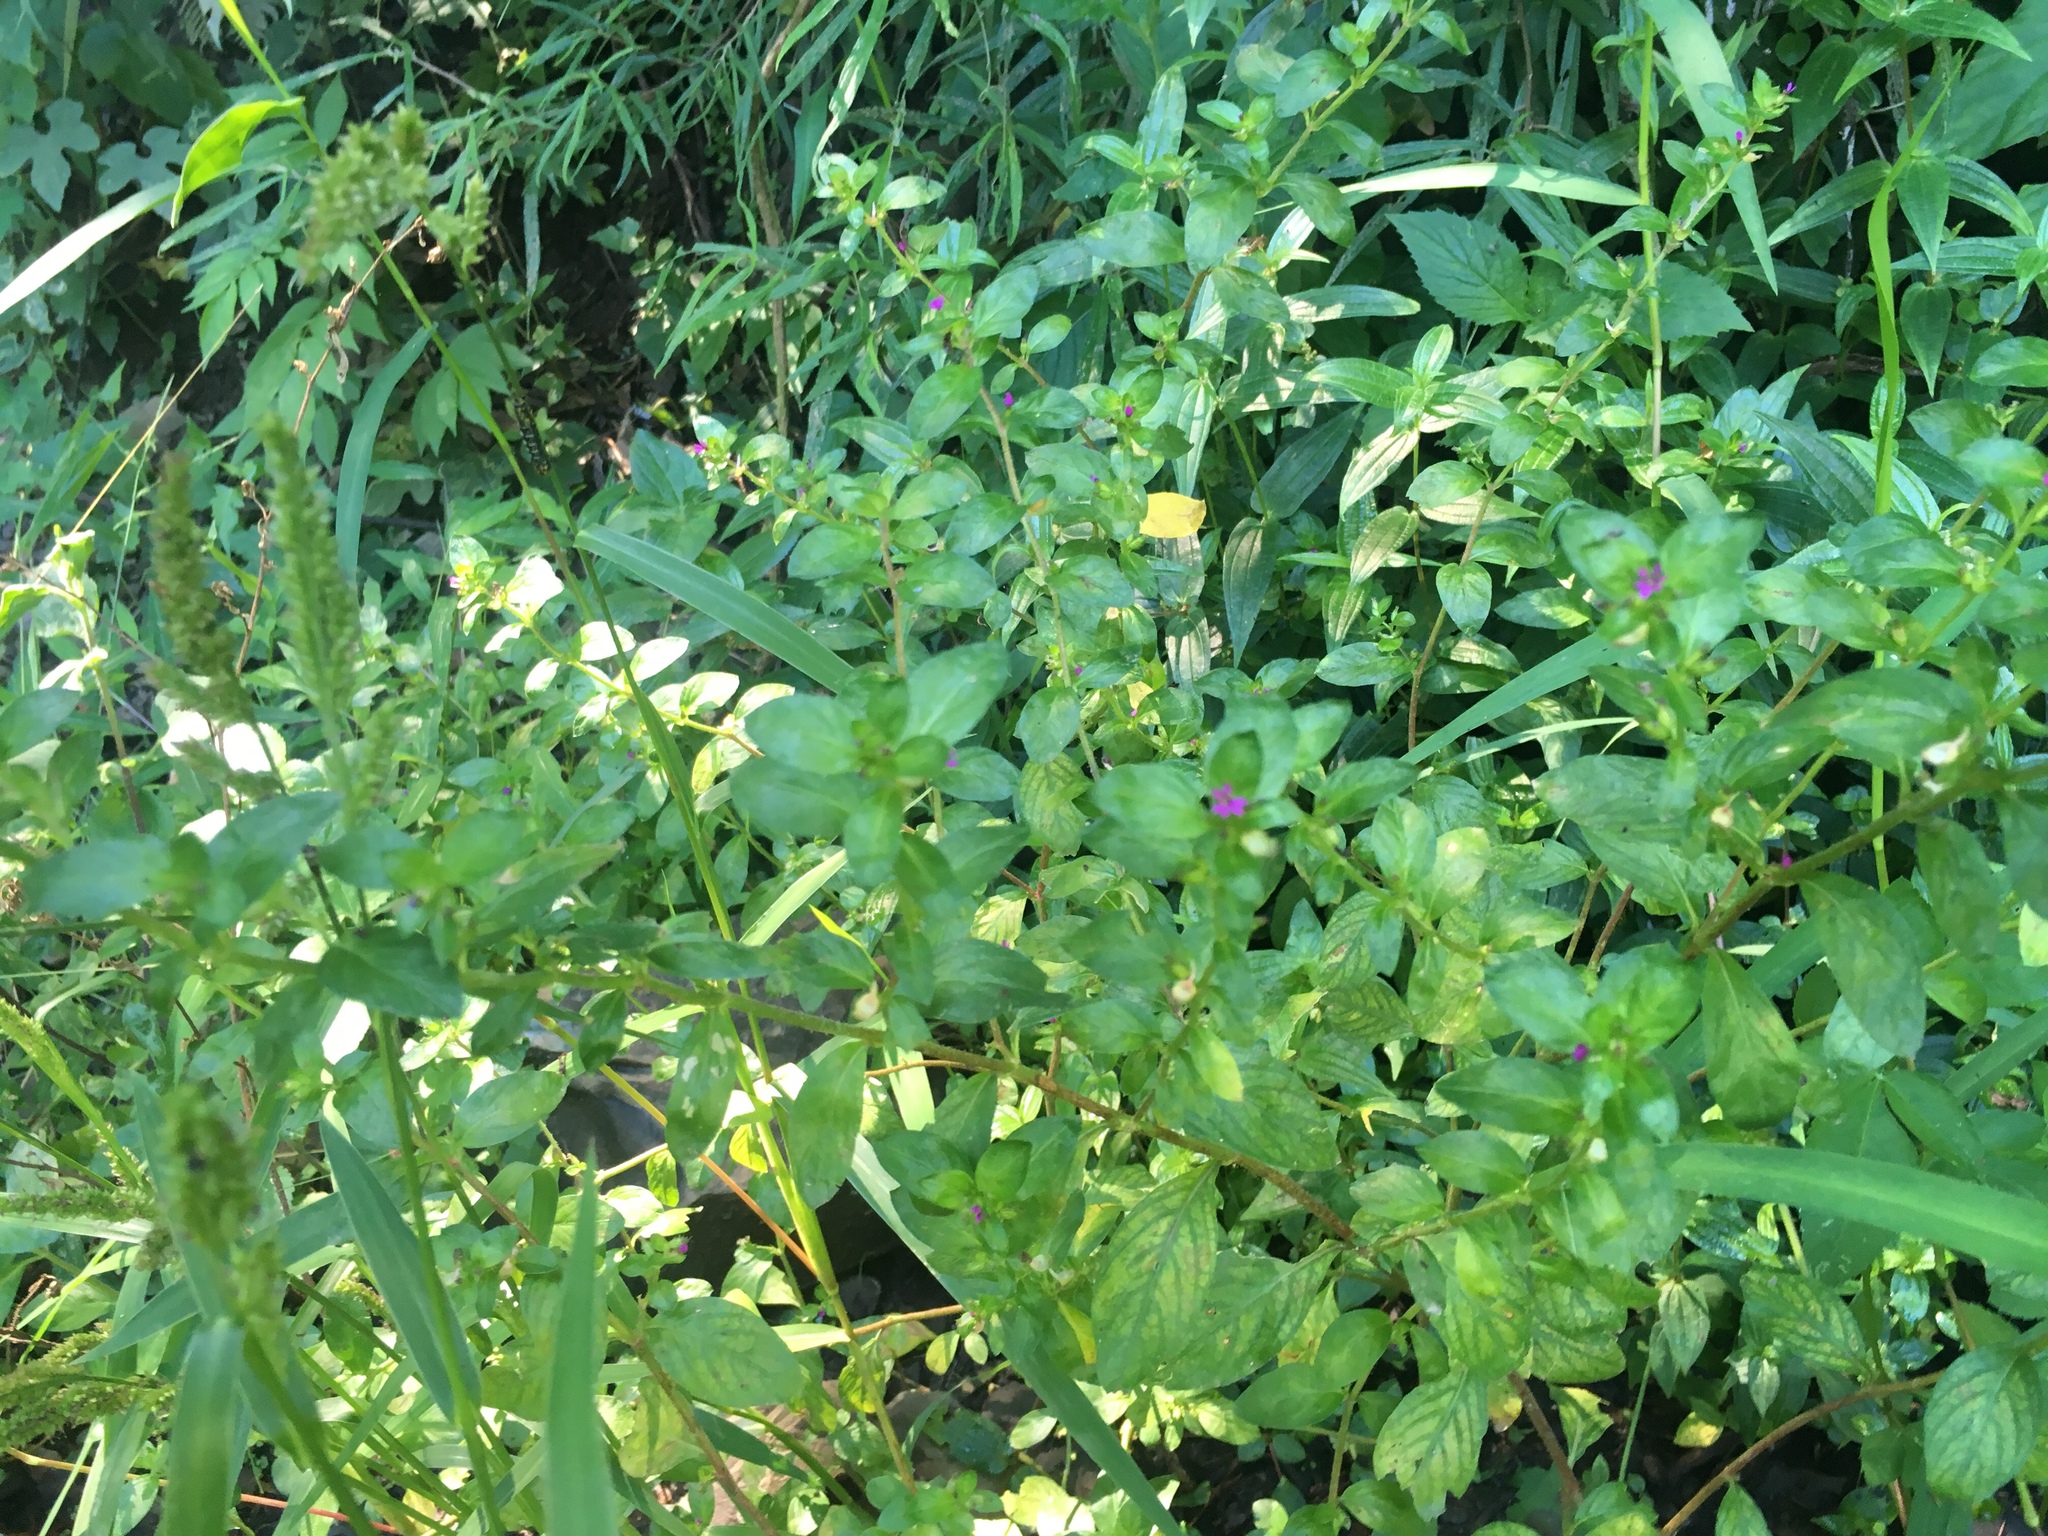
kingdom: Plantae
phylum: Tracheophyta
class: Magnoliopsida
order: Myrtales
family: Lythraceae
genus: Cuphea
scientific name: Cuphea carthagenensis
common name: Colombian waxweed
